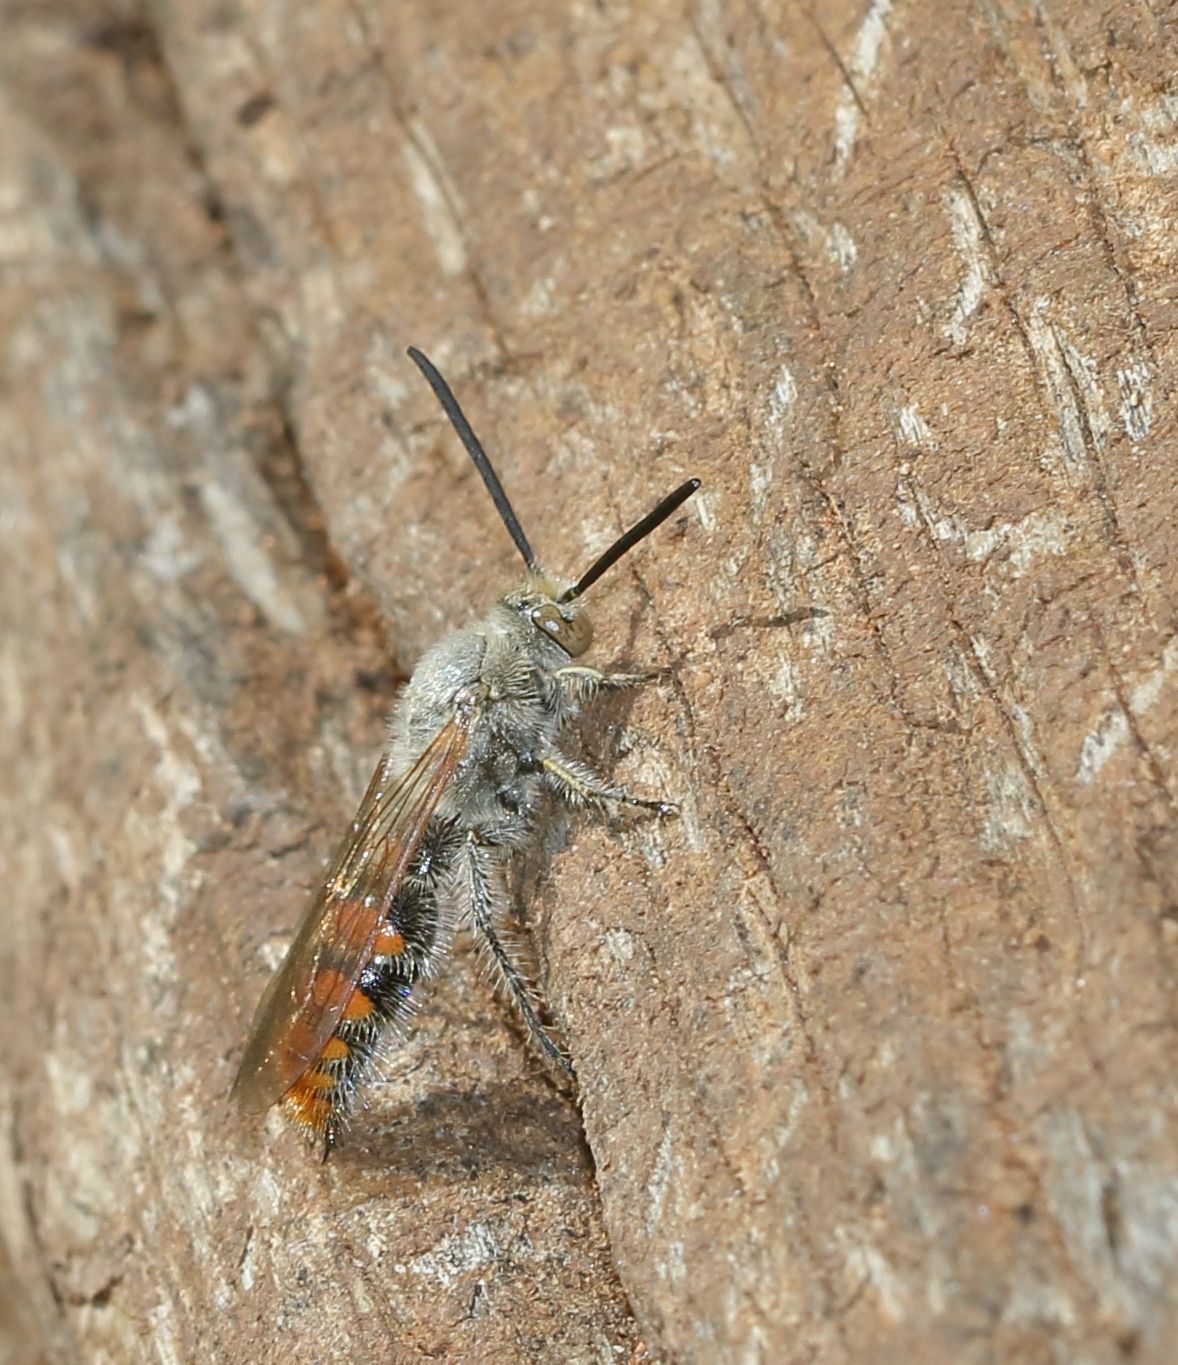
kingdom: Animalia
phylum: Arthropoda
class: Insecta
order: Hymenoptera
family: Scoliidae
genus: Campsomeriella
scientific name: Campsomeriella caelebs
